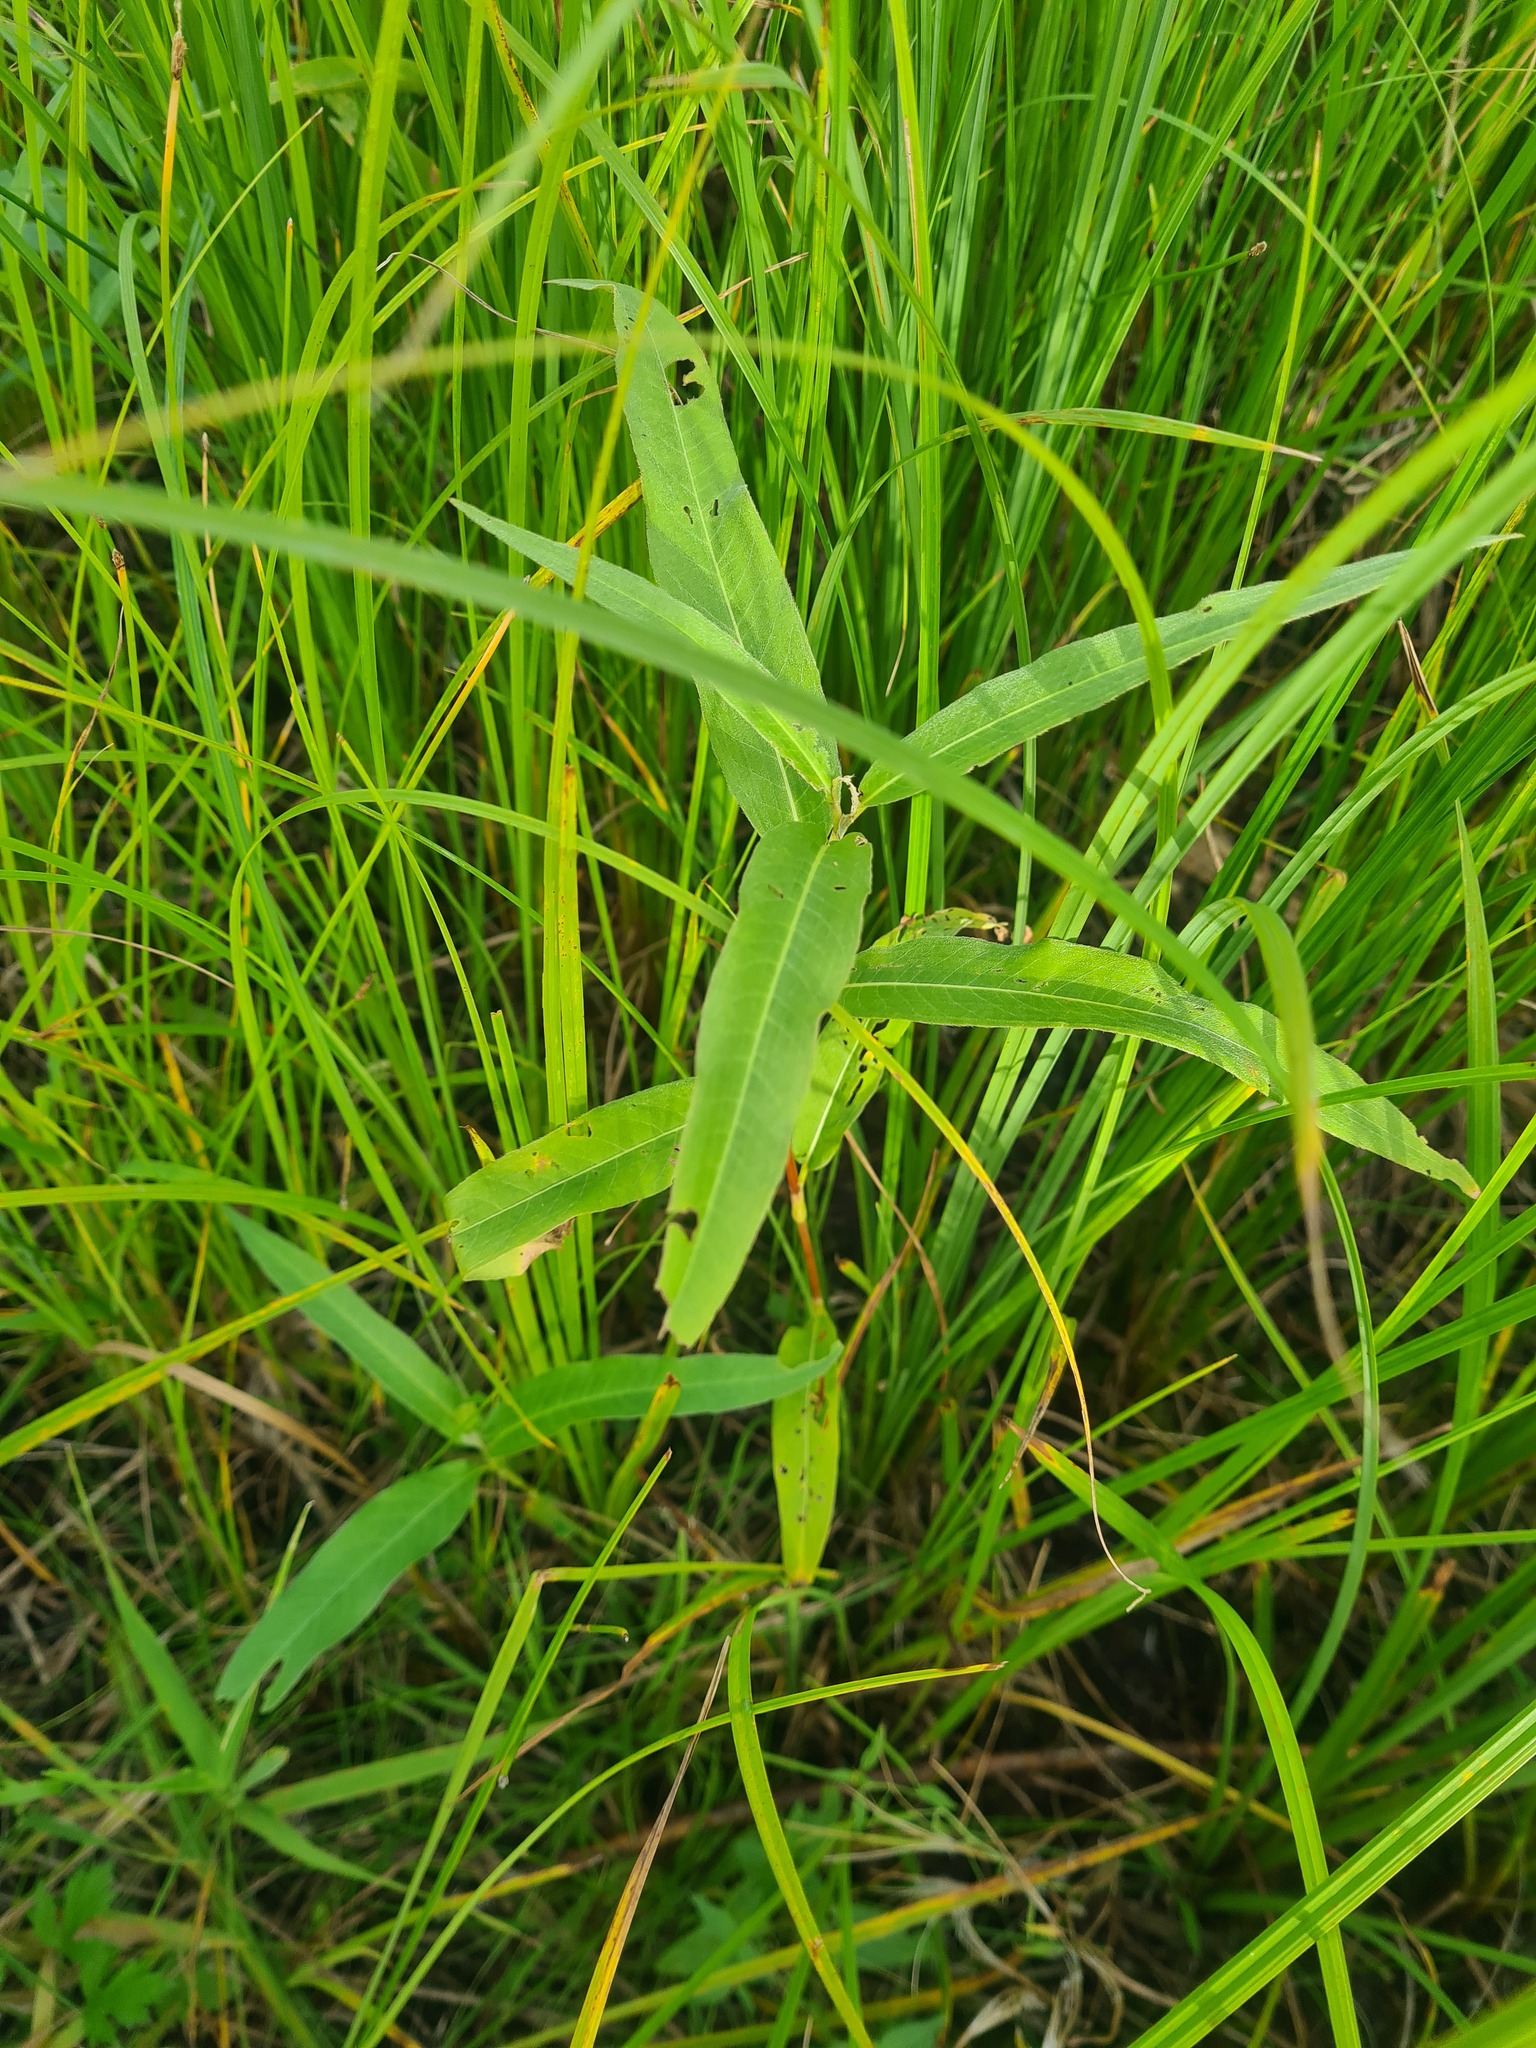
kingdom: Plantae
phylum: Tracheophyta
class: Magnoliopsida
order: Caryophyllales
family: Polygonaceae
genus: Persicaria
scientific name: Persicaria amphibia
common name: Amphibious bistort
